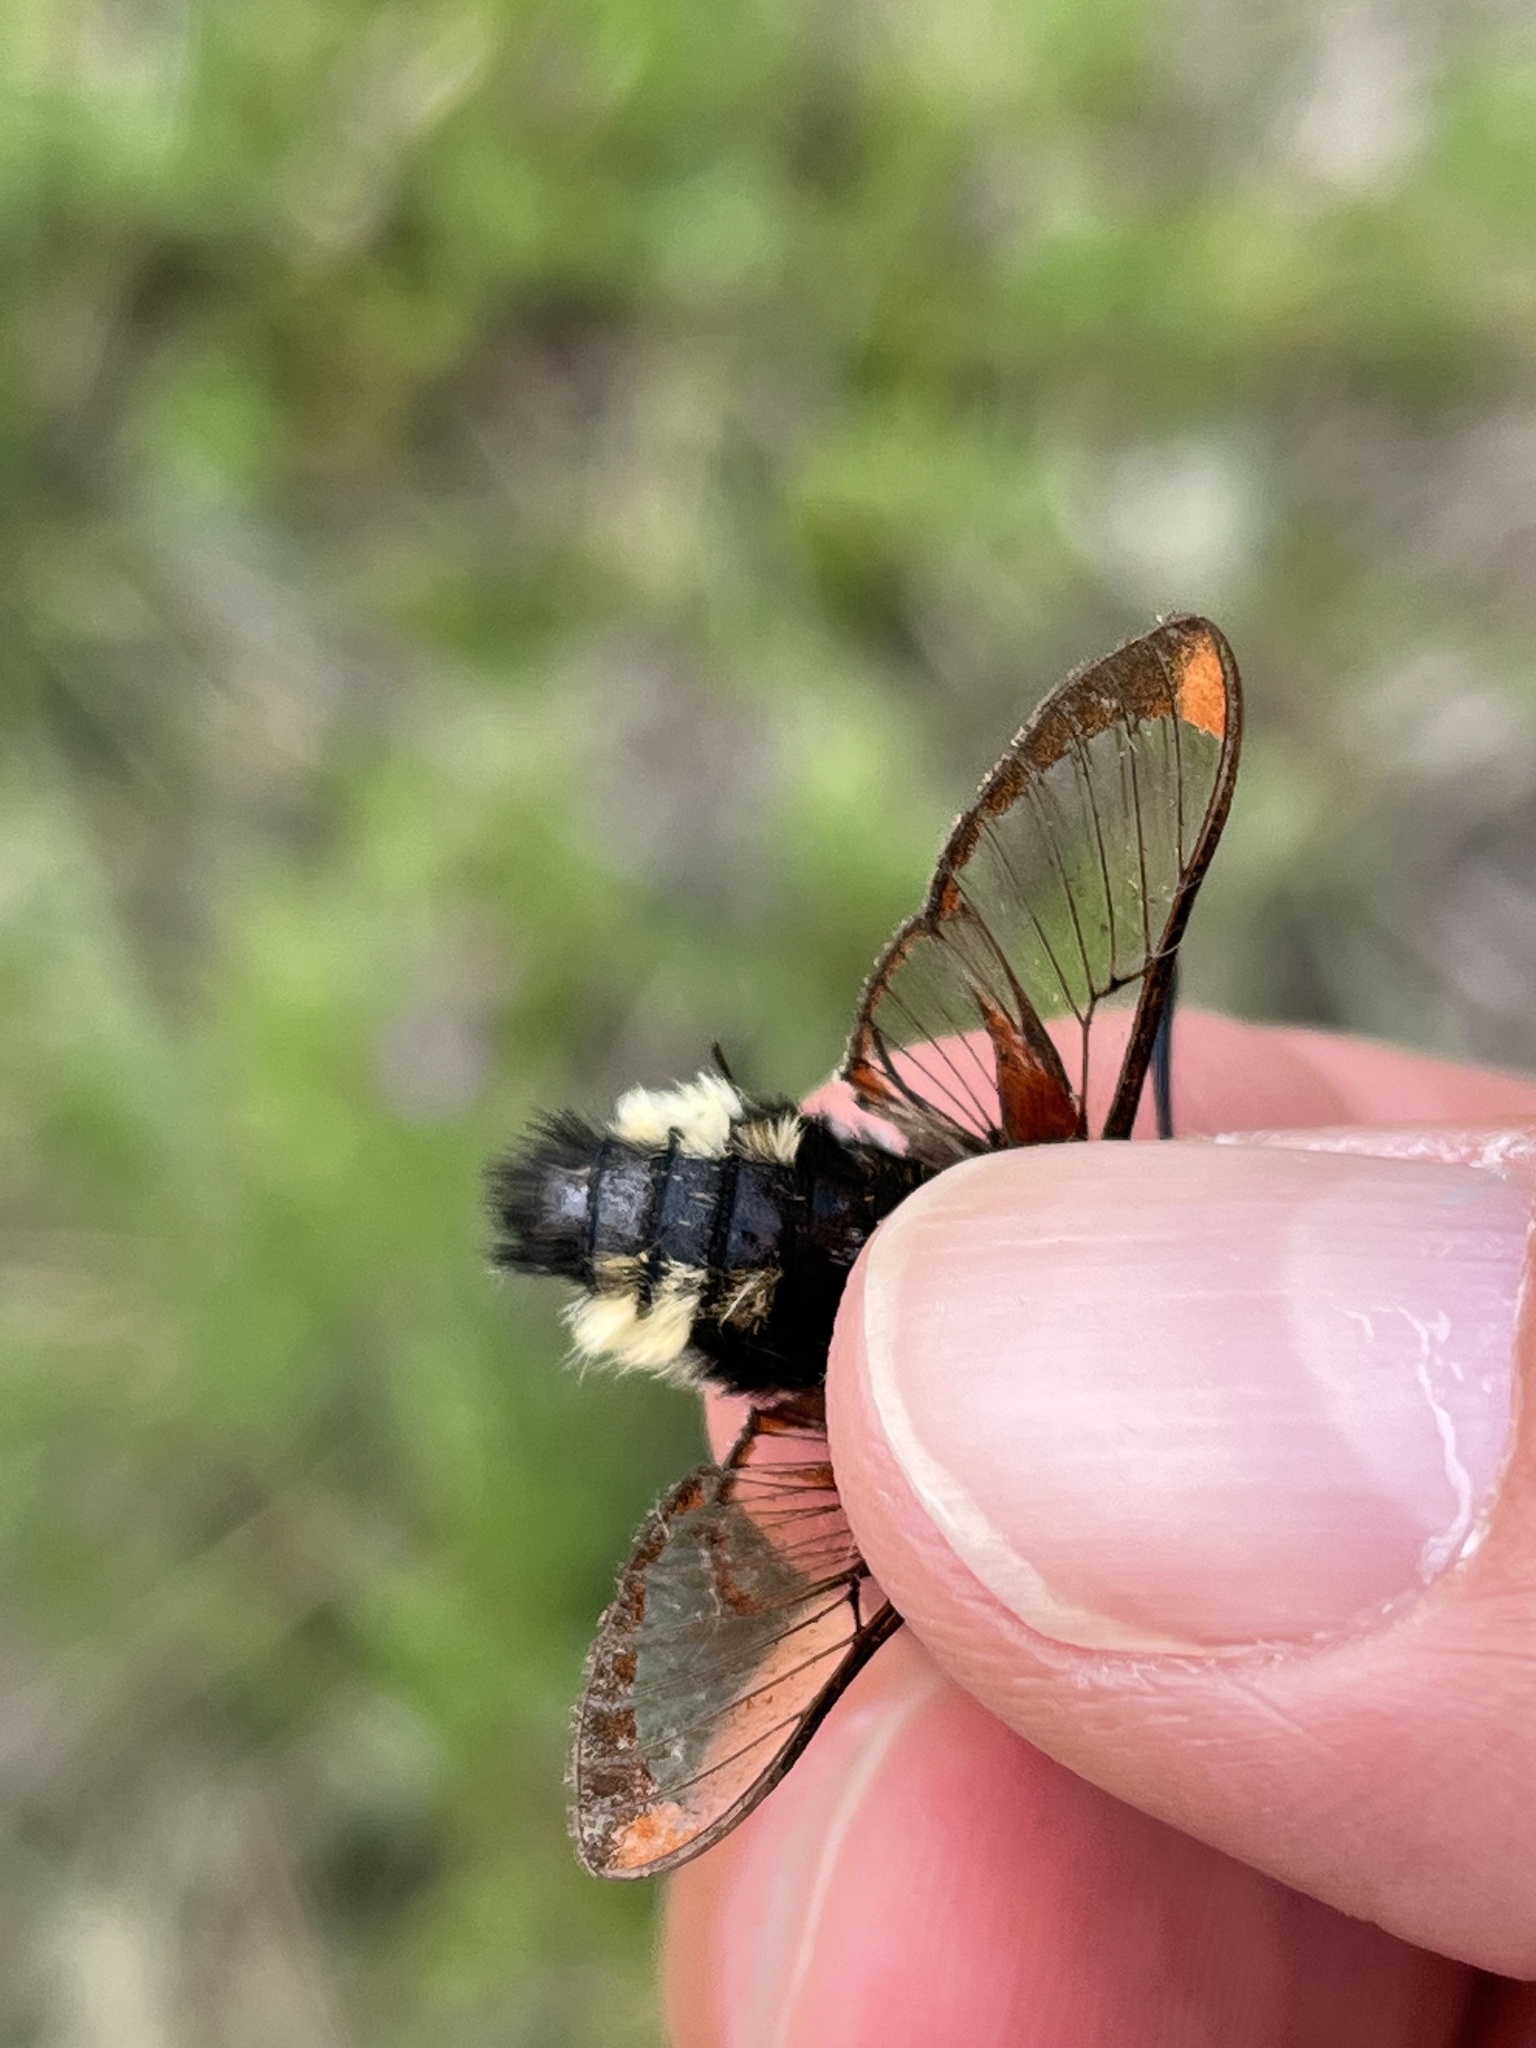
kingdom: Animalia
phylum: Arthropoda
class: Insecta
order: Lepidoptera
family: Sphingidae
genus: Hemaris
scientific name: Hemaris thetis
